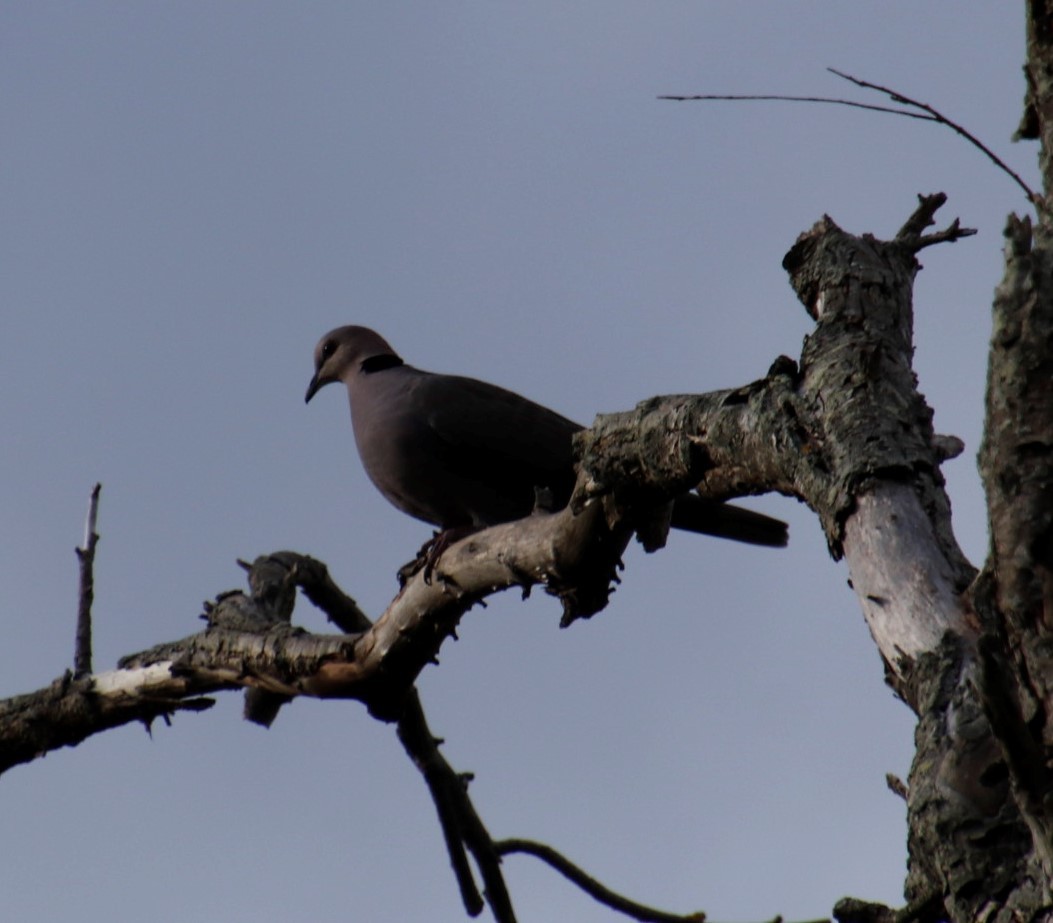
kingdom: Animalia
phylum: Chordata
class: Aves
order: Columbiformes
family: Columbidae
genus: Streptopelia
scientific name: Streptopelia semitorquata
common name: Red-eyed dove
